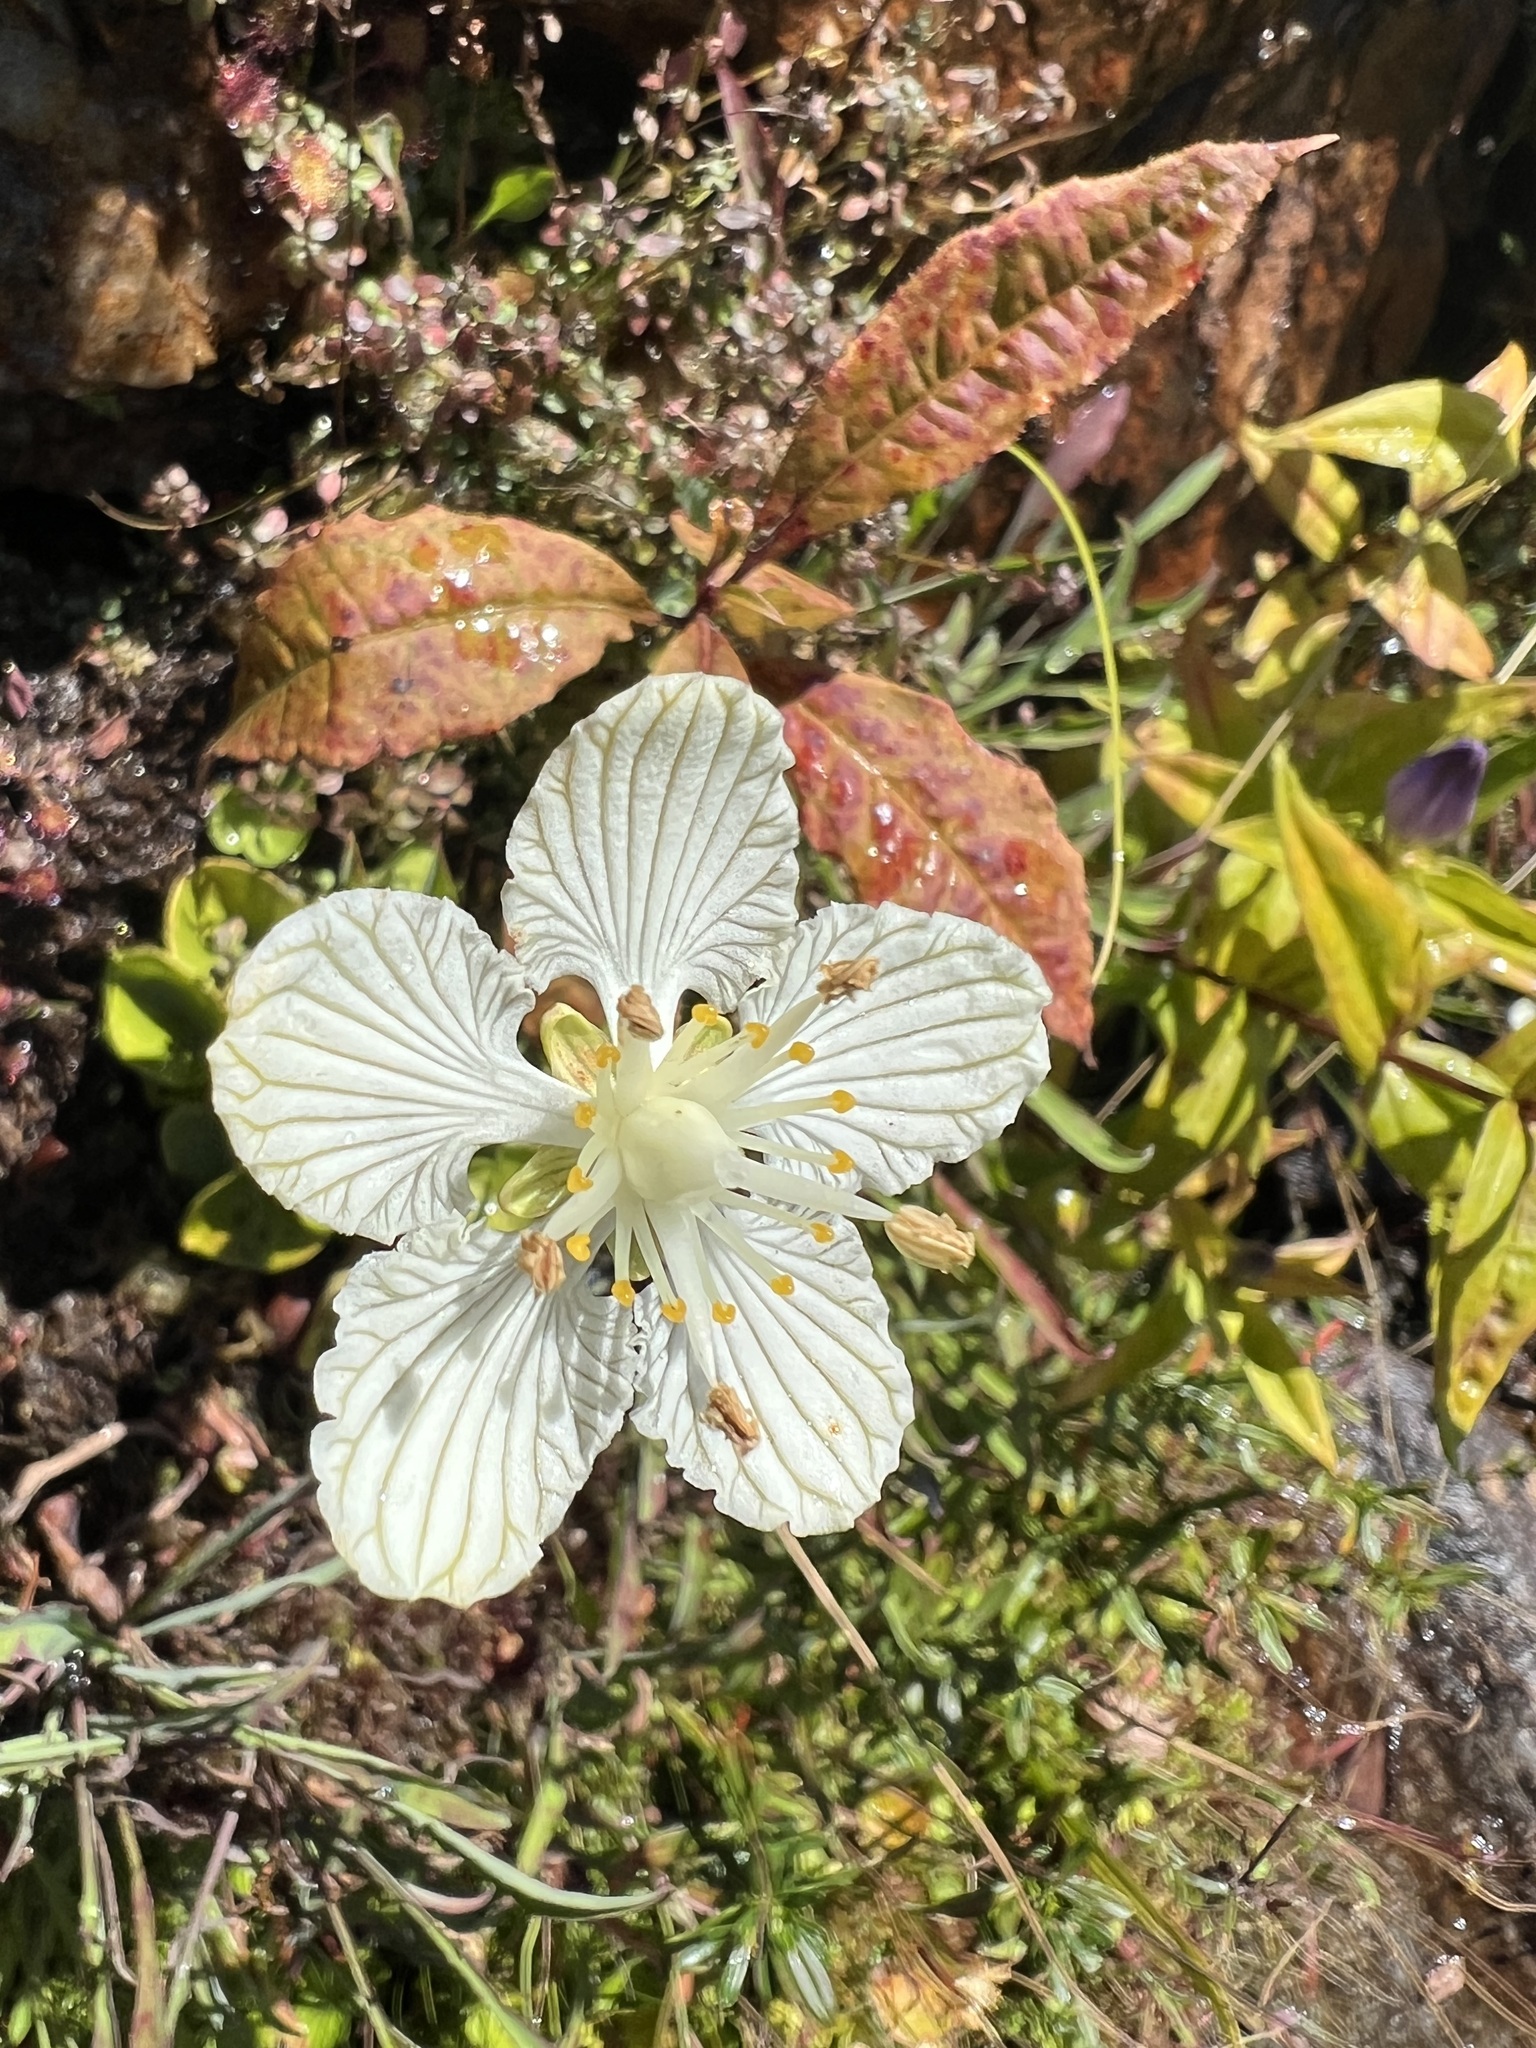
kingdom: Plantae
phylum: Tracheophyta
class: Magnoliopsida
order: Celastrales
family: Parnassiaceae
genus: Parnassia
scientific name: Parnassia asarifolia
